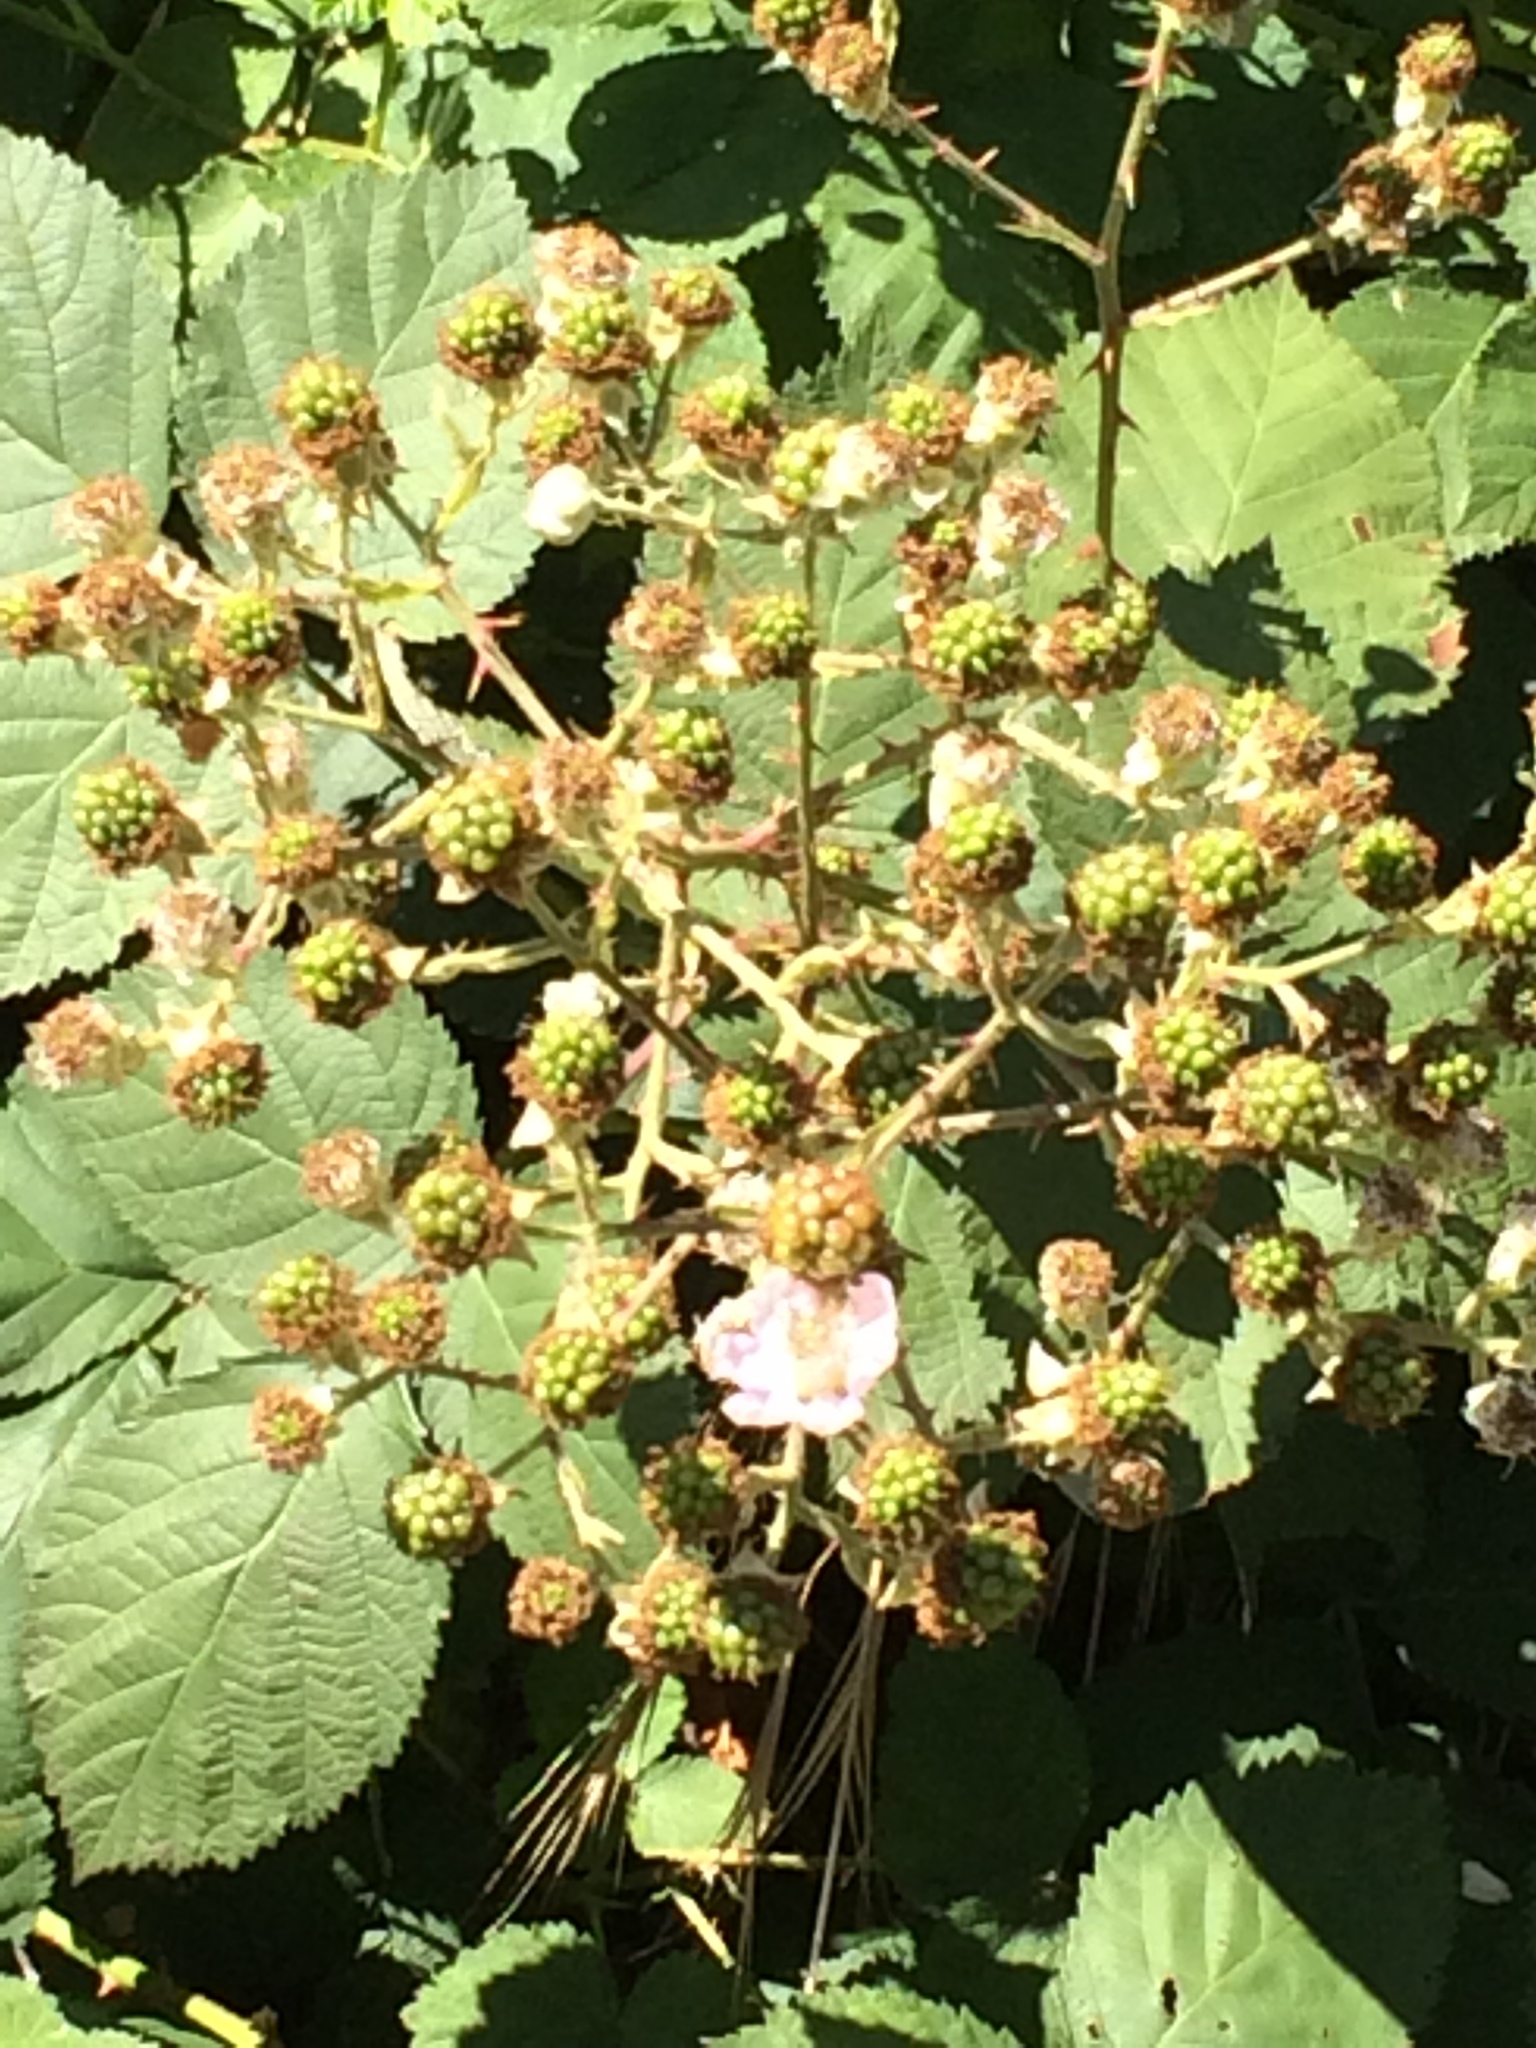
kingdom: Plantae
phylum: Tracheophyta
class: Magnoliopsida
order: Rosales
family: Rosaceae
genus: Rubus
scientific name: Rubus armeniacus
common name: Himalayan blackberry
